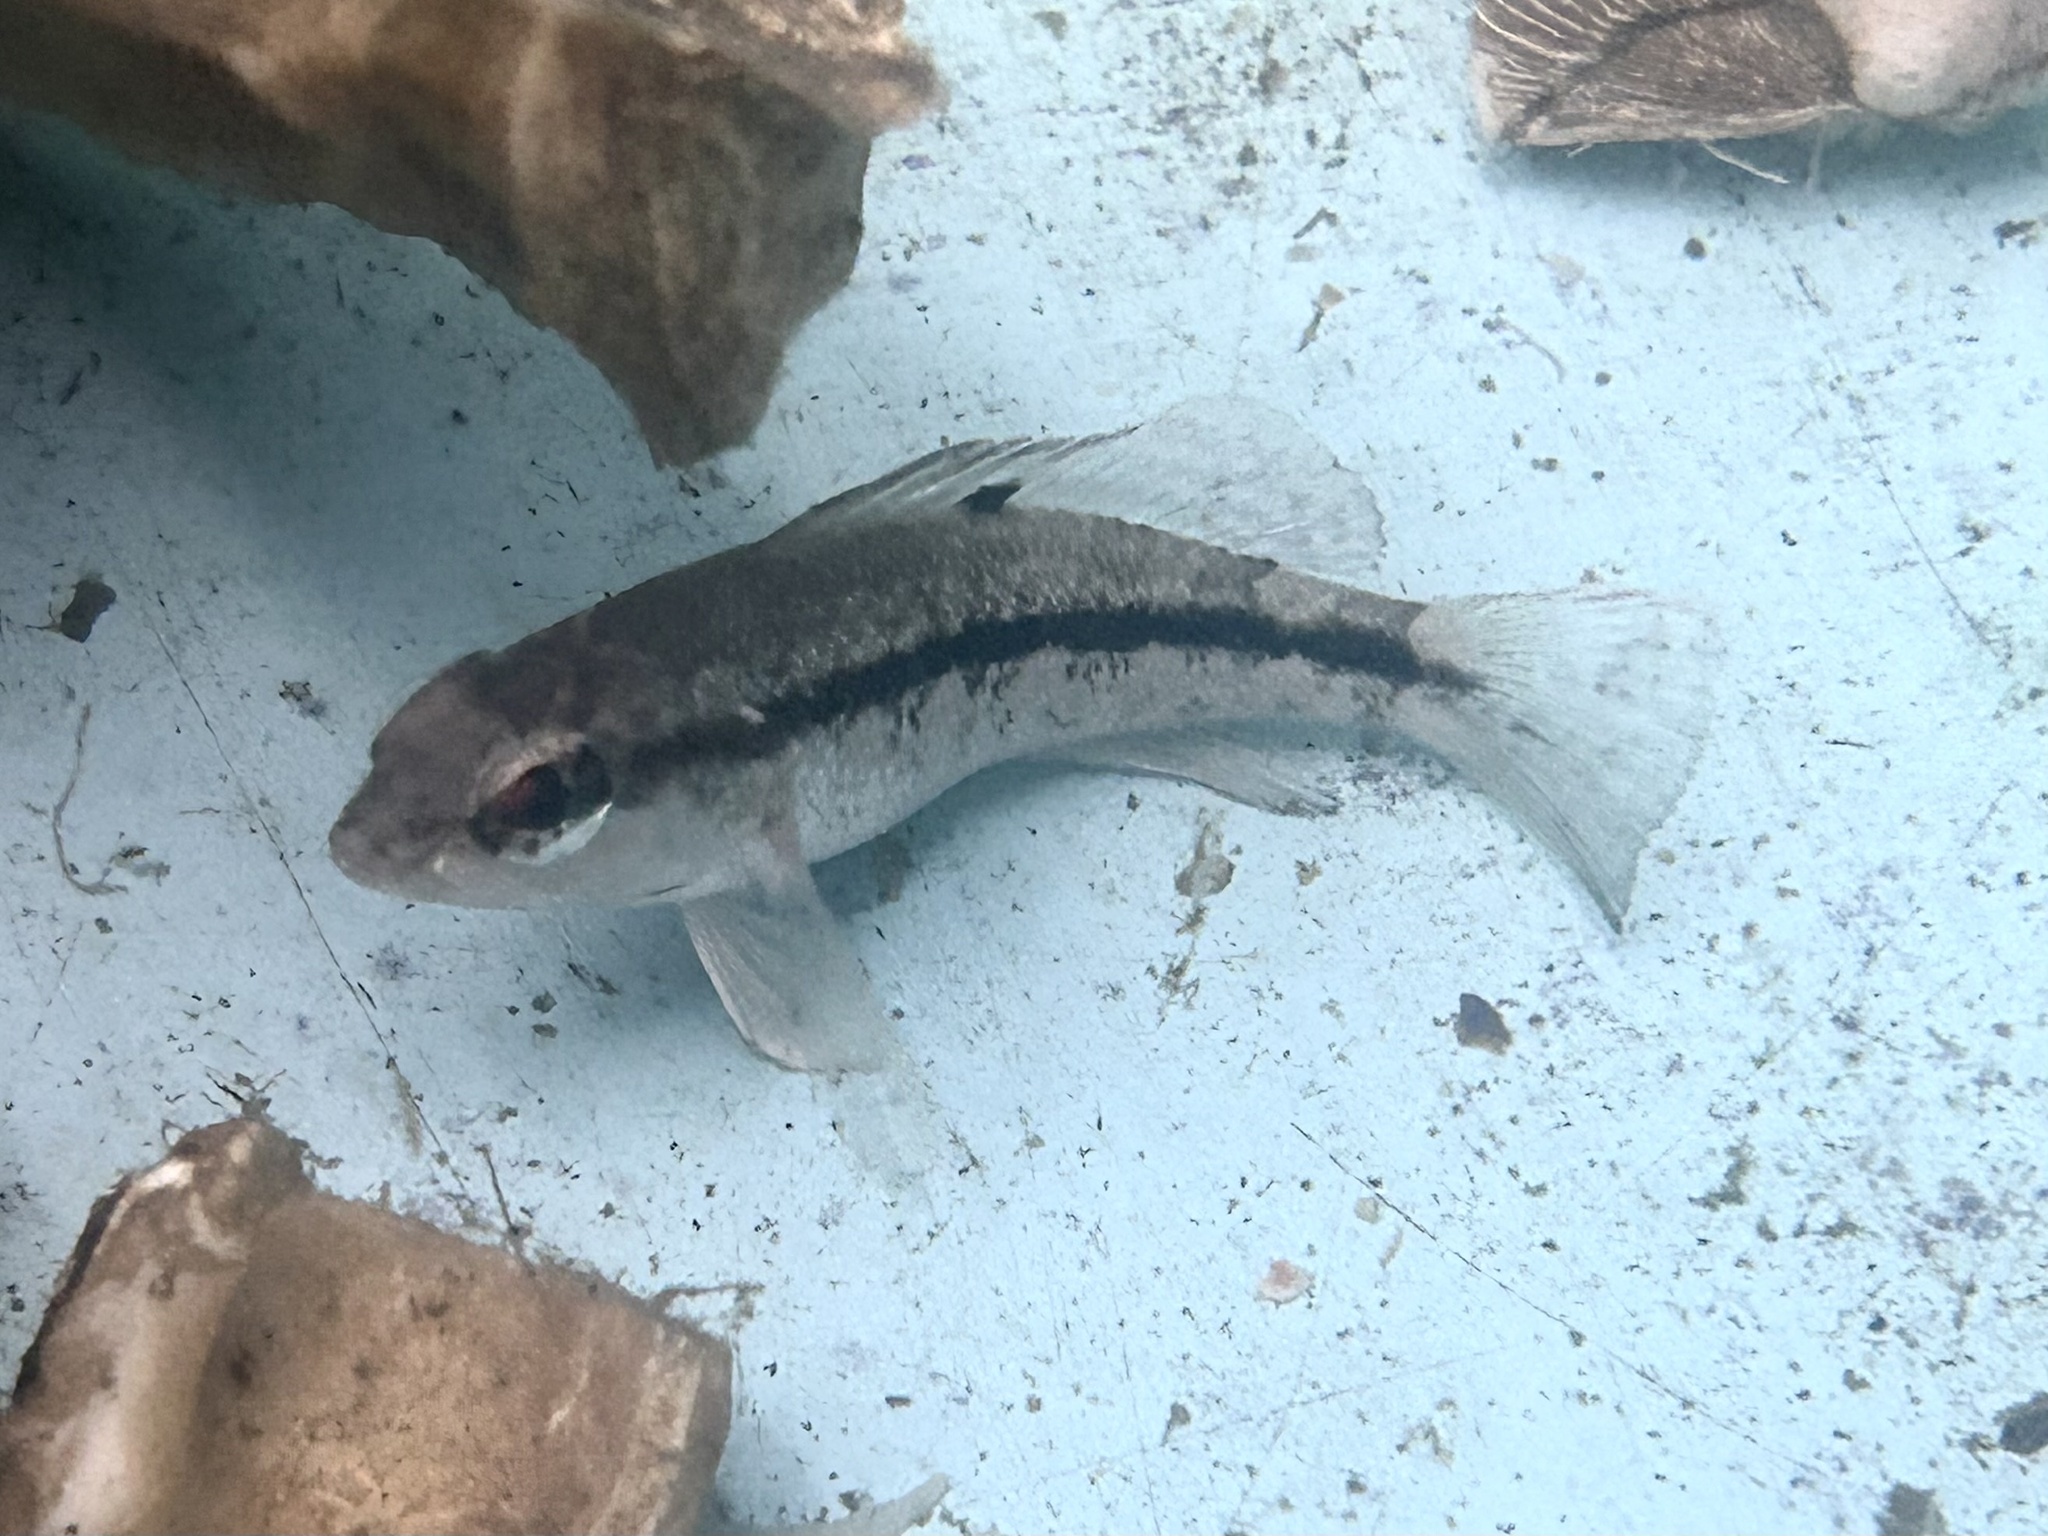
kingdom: Animalia
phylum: Chordata
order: Perciformes
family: Serranidae
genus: Centropristis
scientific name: Centropristis striata
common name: Black sea bass
